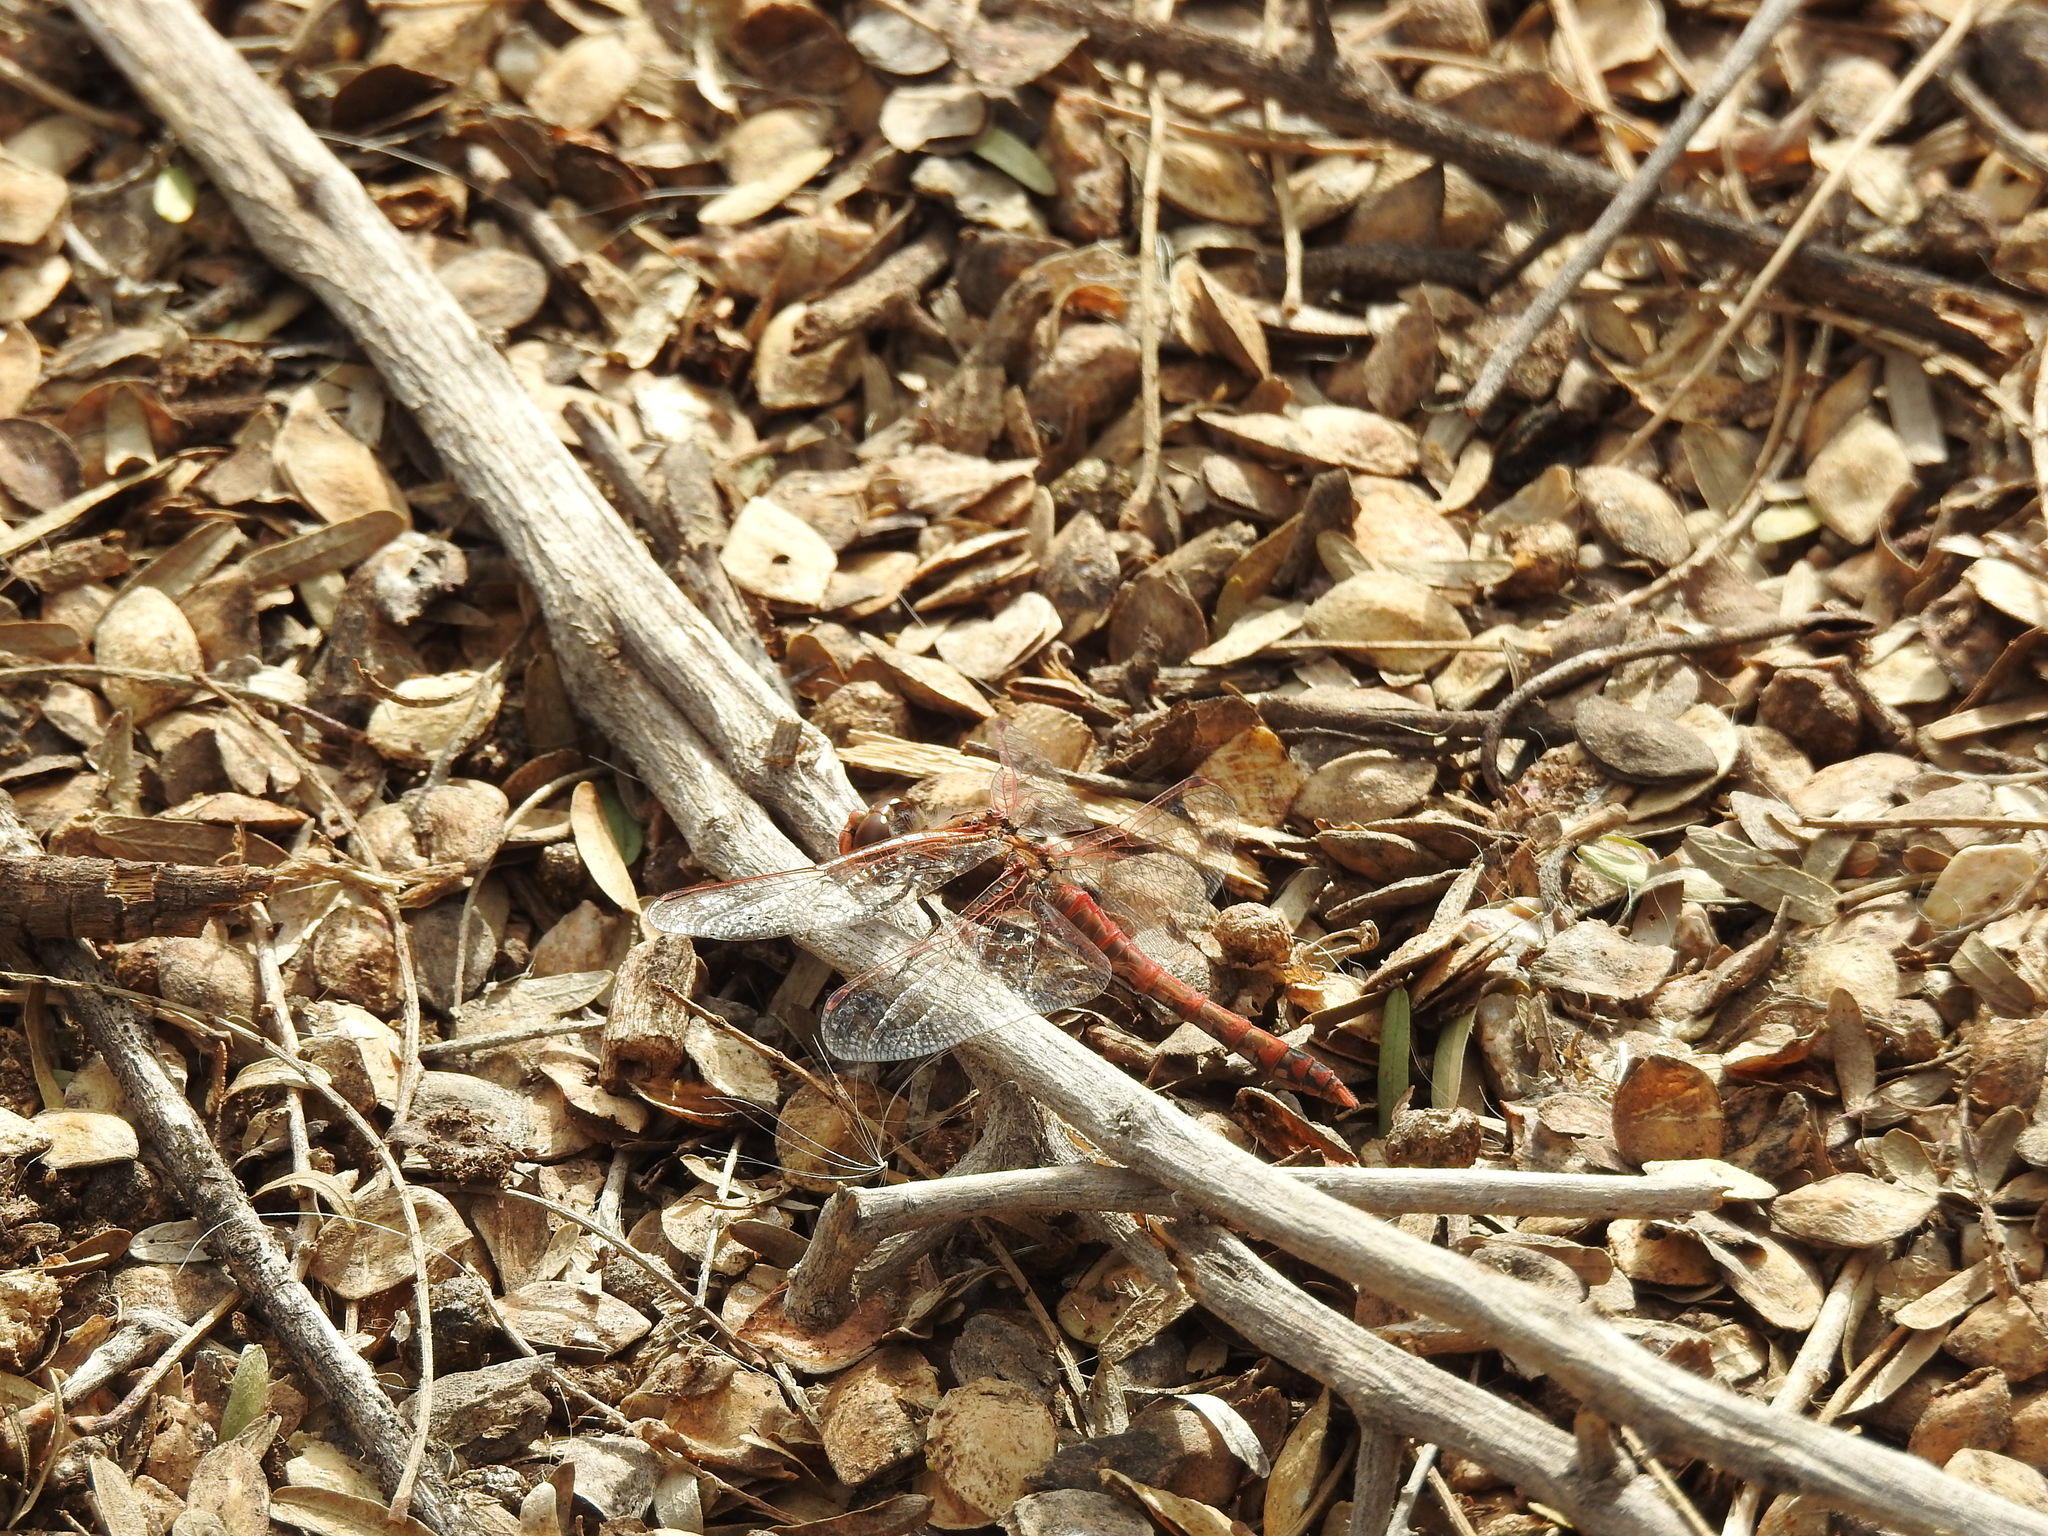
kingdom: Animalia
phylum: Arthropoda
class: Insecta
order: Odonata
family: Libellulidae
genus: Sympetrum
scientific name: Sympetrum corruptum
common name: Variegated meadowhawk
